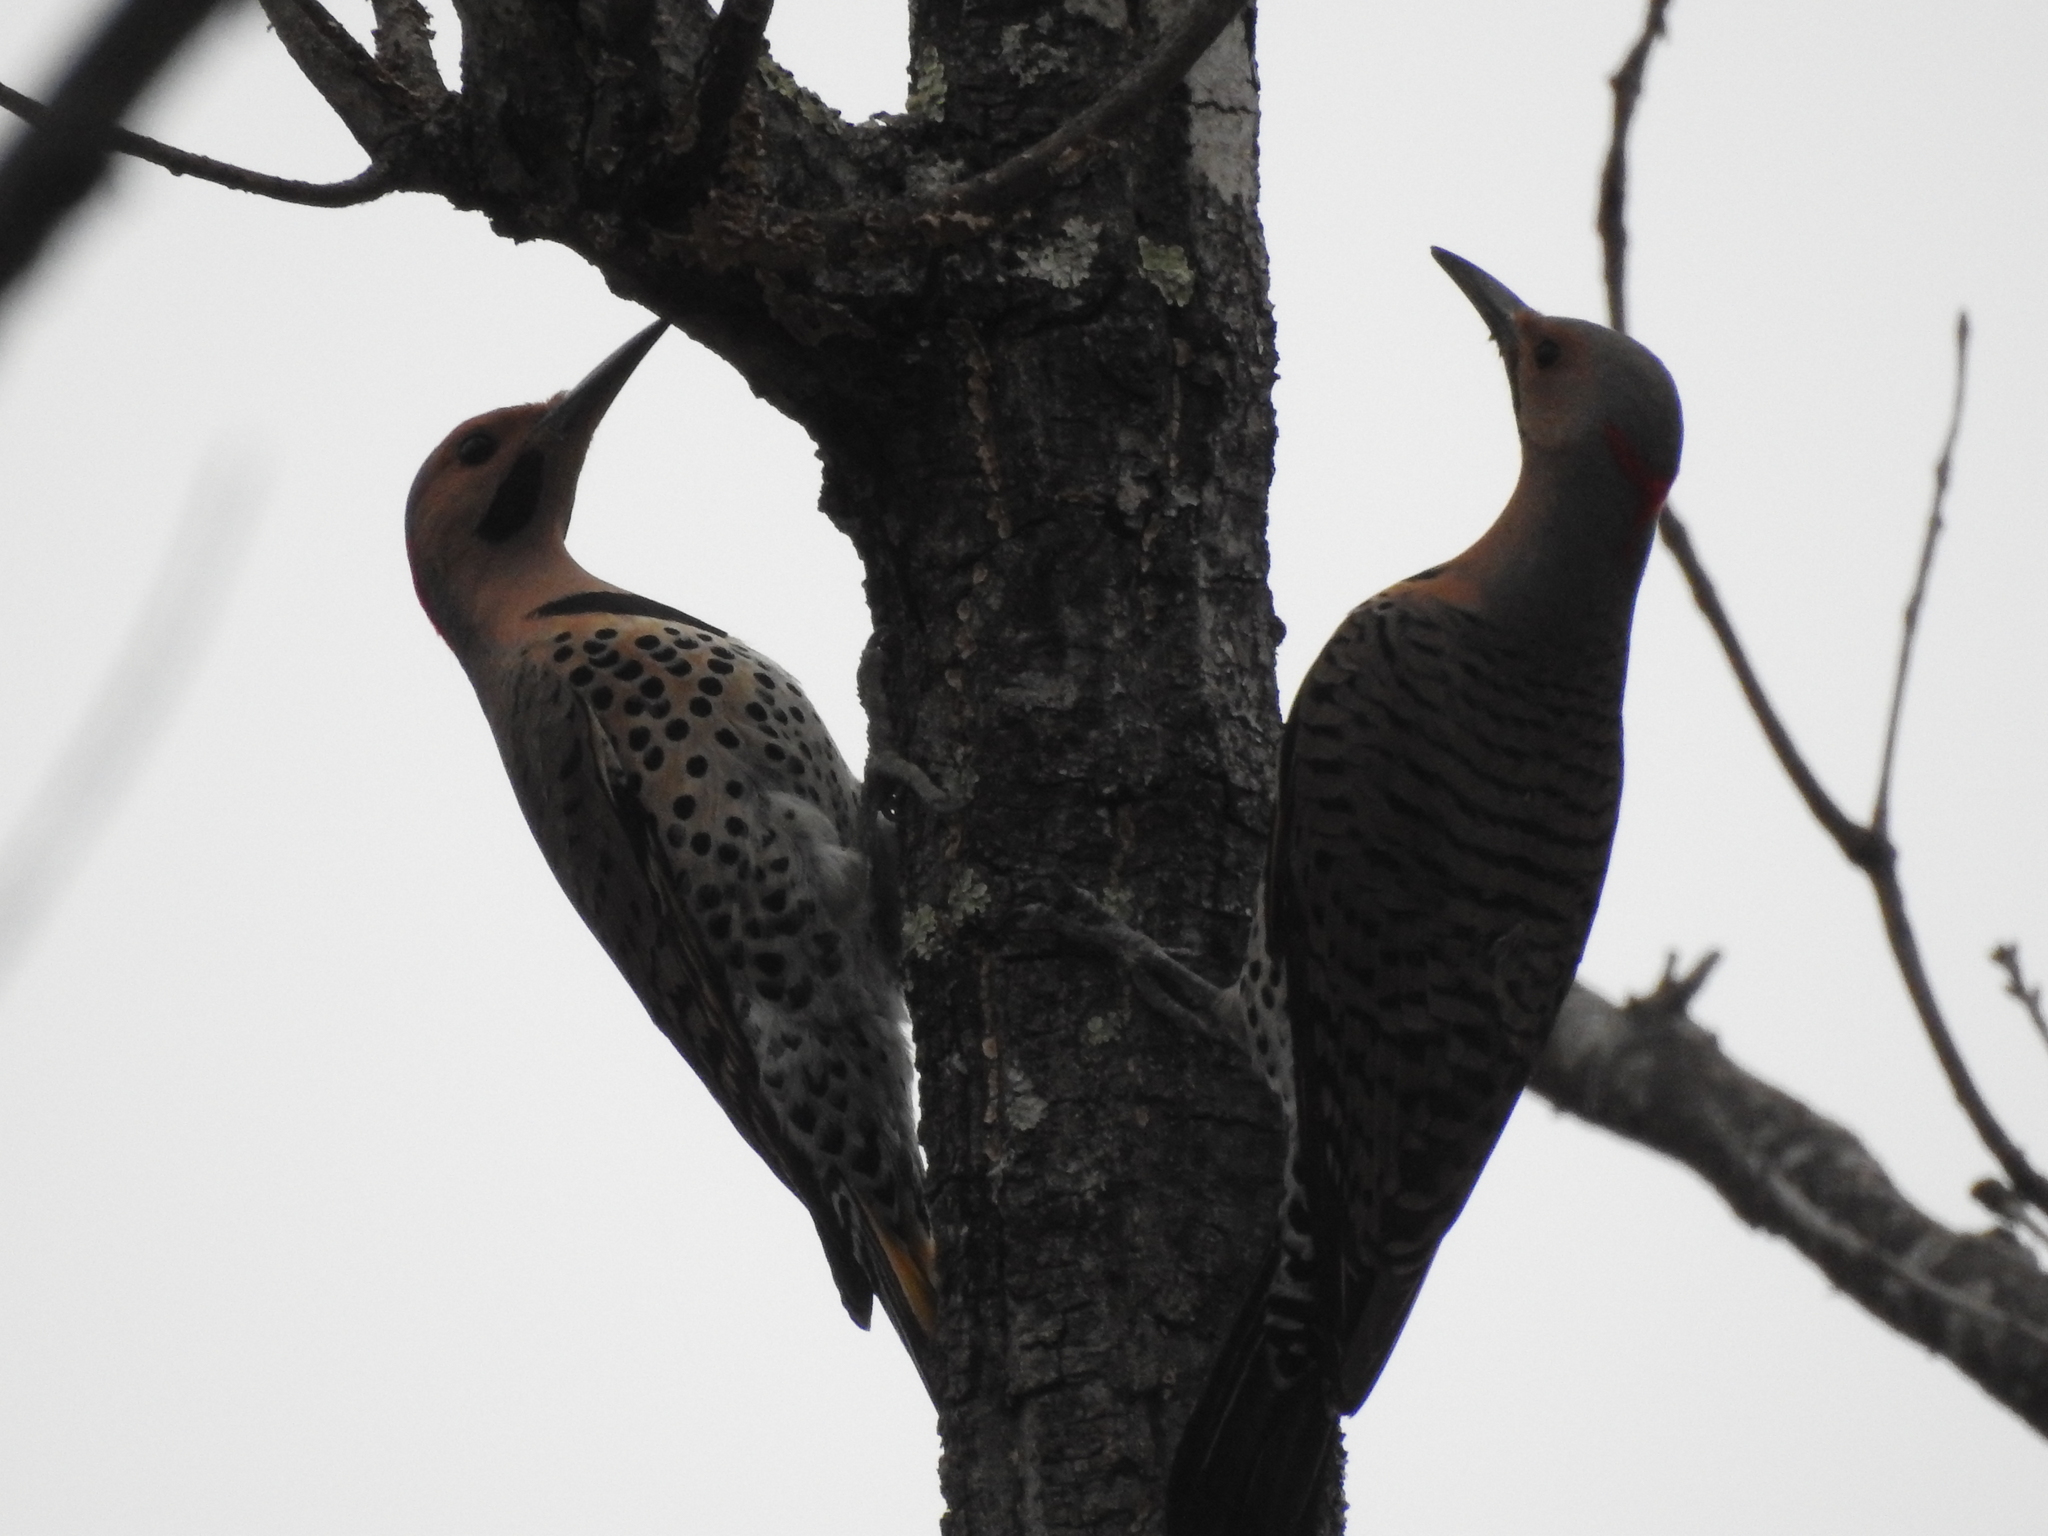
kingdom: Animalia
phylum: Chordata
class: Aves
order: Piciformes
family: Picidae
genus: Colaptes
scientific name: Colaptes auratus
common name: Northern flicker
